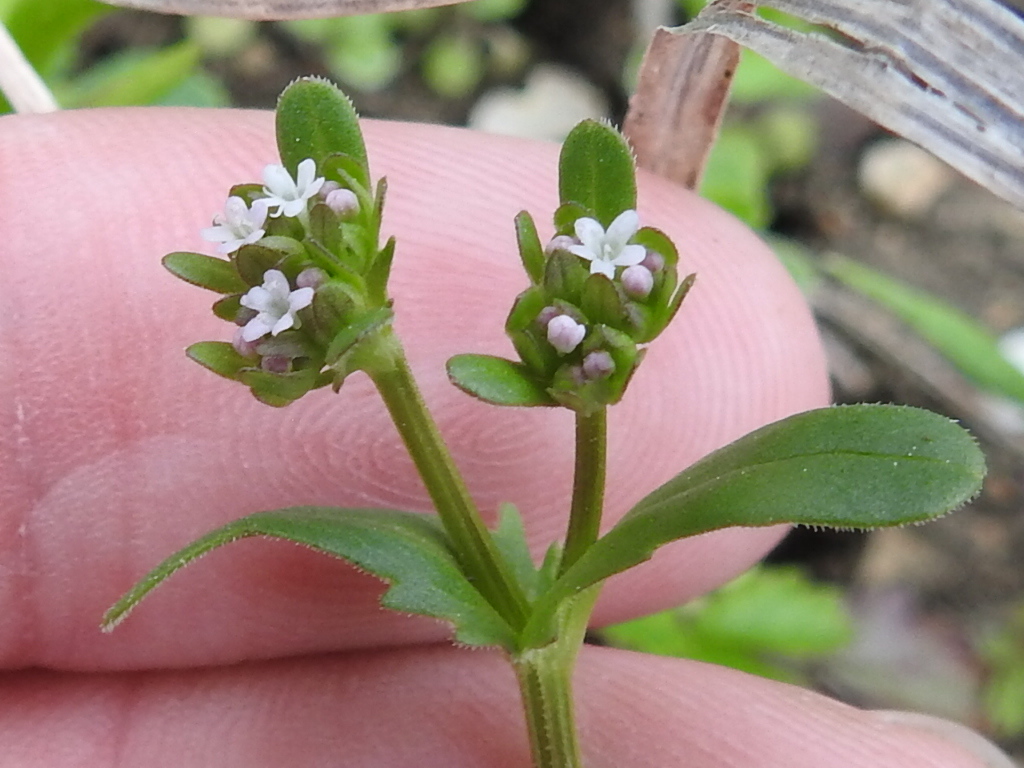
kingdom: Plantae
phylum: Tracheophyta
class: Magnoliopsida
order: Dipsacales
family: Caprifoliaceae
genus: Valerianella
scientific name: Valerianella radiata
